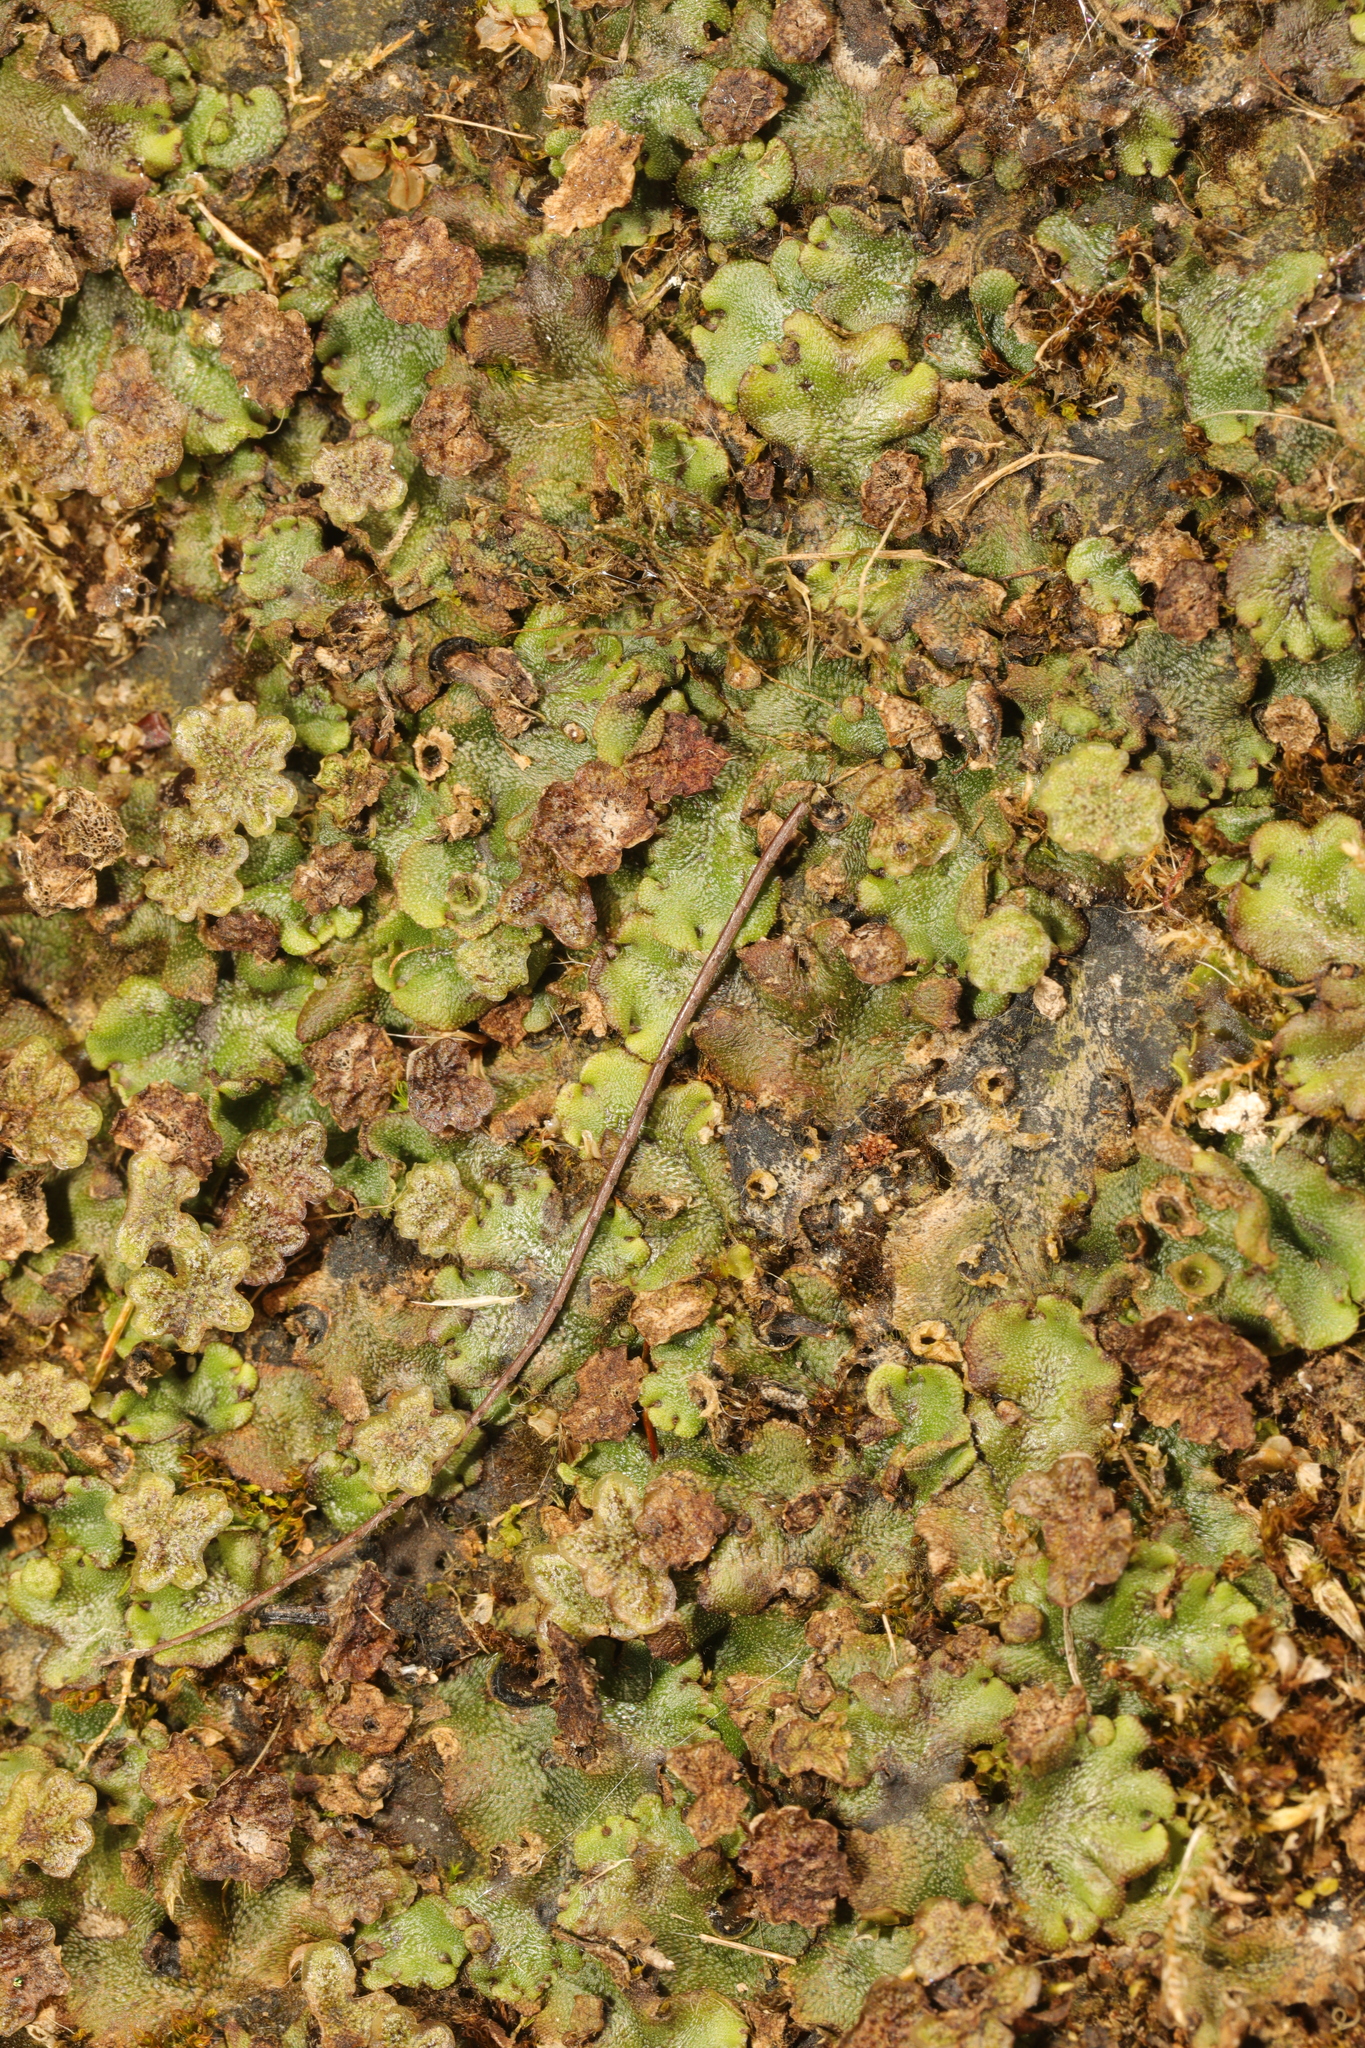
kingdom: Plantae
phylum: Marchantiophyta
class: Marchantiopsida
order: Marchantiales
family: Marchantiaceae
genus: Marchantia
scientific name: Marchantia polymorpha
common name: Common liverwort
